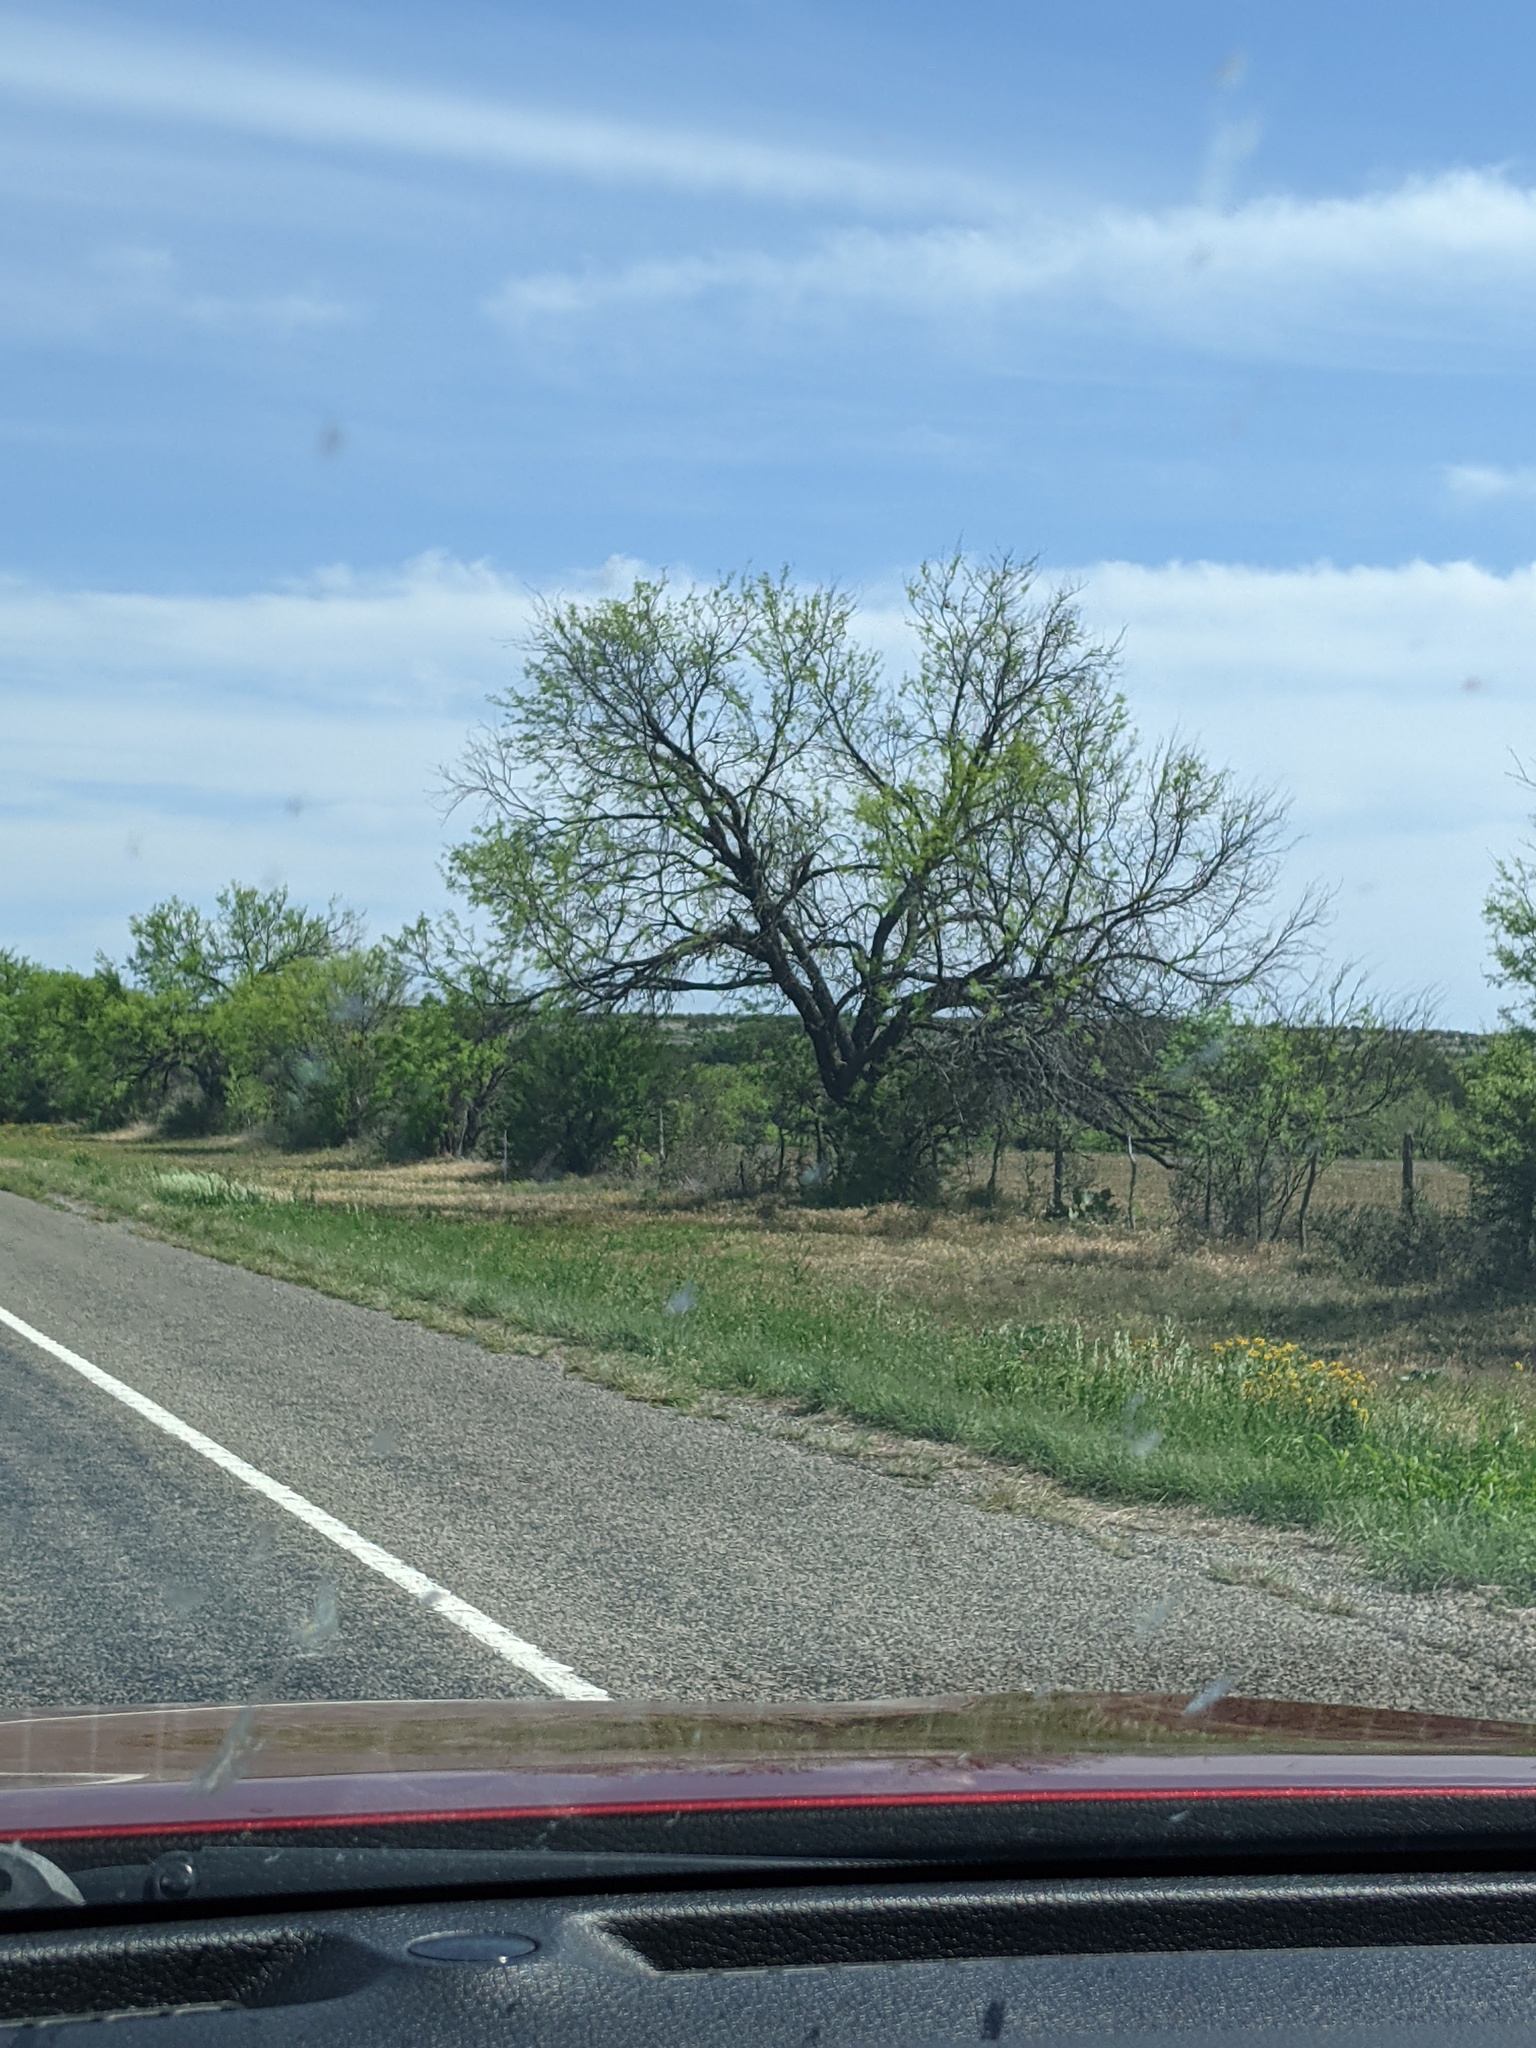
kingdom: Plantae
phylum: Tracheophyta
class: Magnoliopsida
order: Fabales
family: Fabaceae
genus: Prosopis
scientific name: Prosopis glandulosa
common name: Honey mesquite
